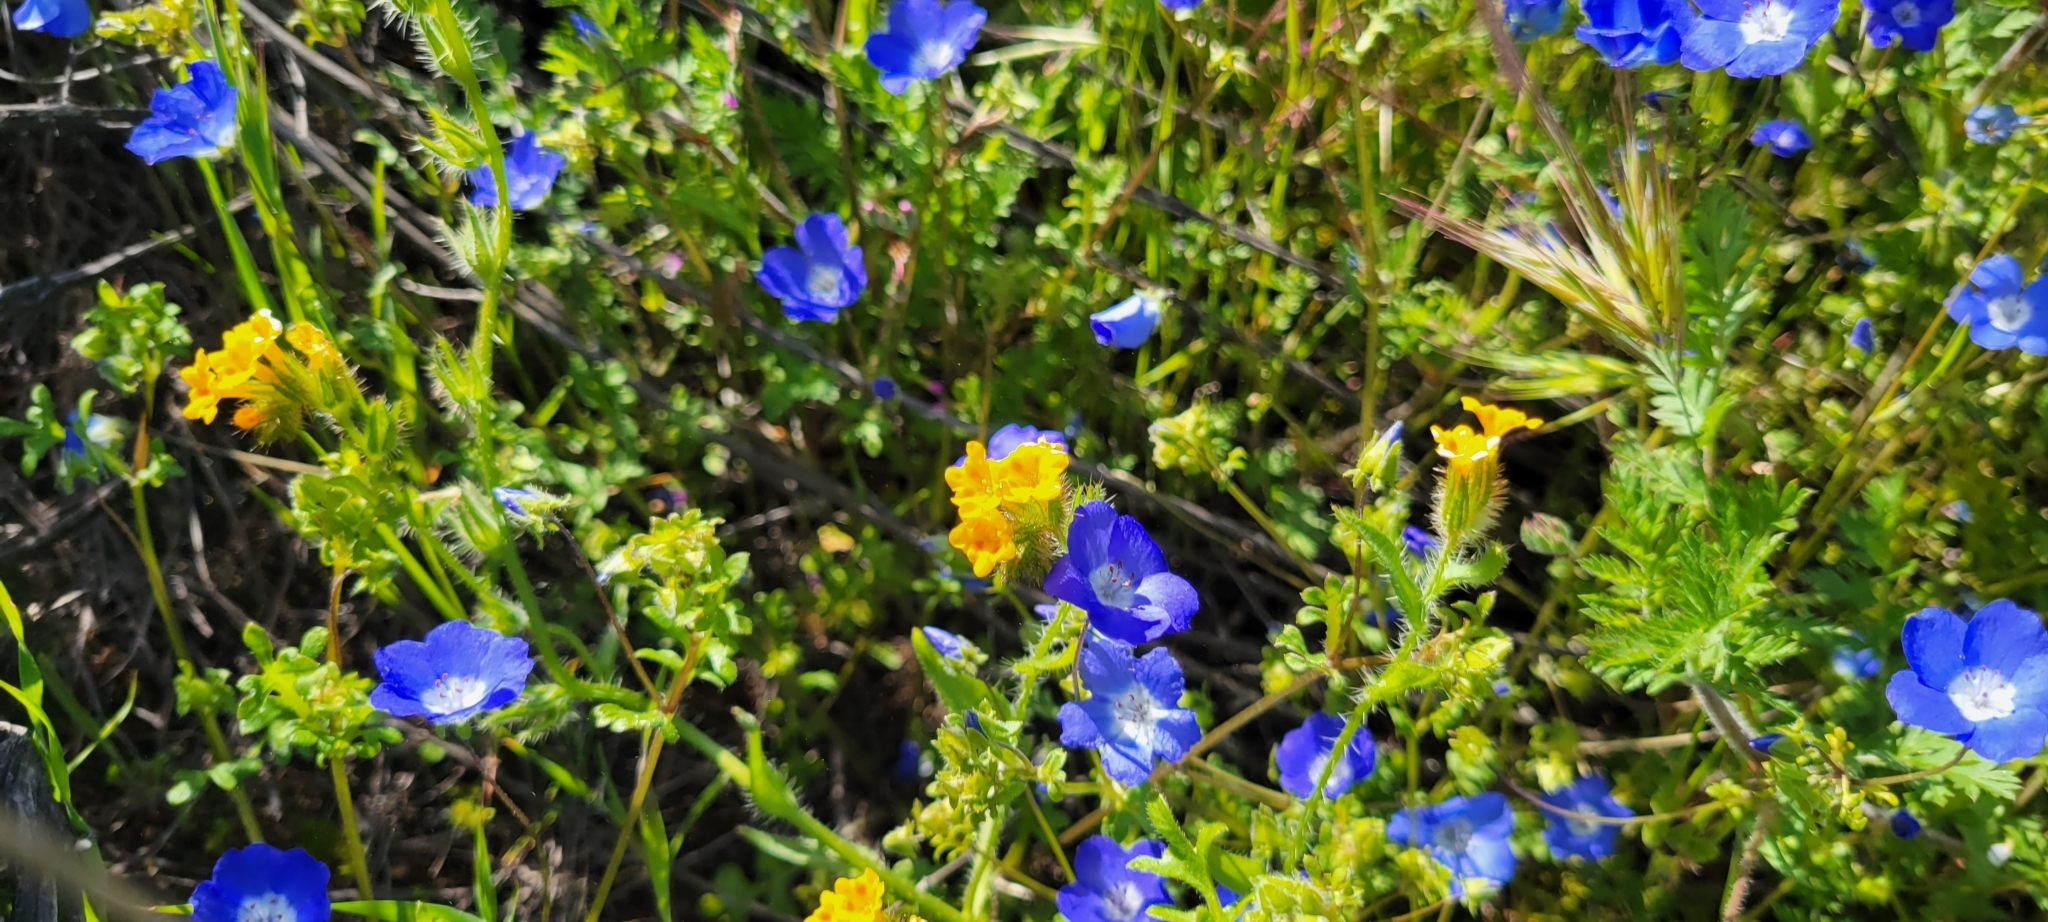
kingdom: Plantae
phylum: Tracheophyta
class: Magnoliopsida
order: Boraginales
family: Hydrophyllaceae
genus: Nemophila
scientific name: Nemophila menziesii
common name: Baby's-blue-eyes
